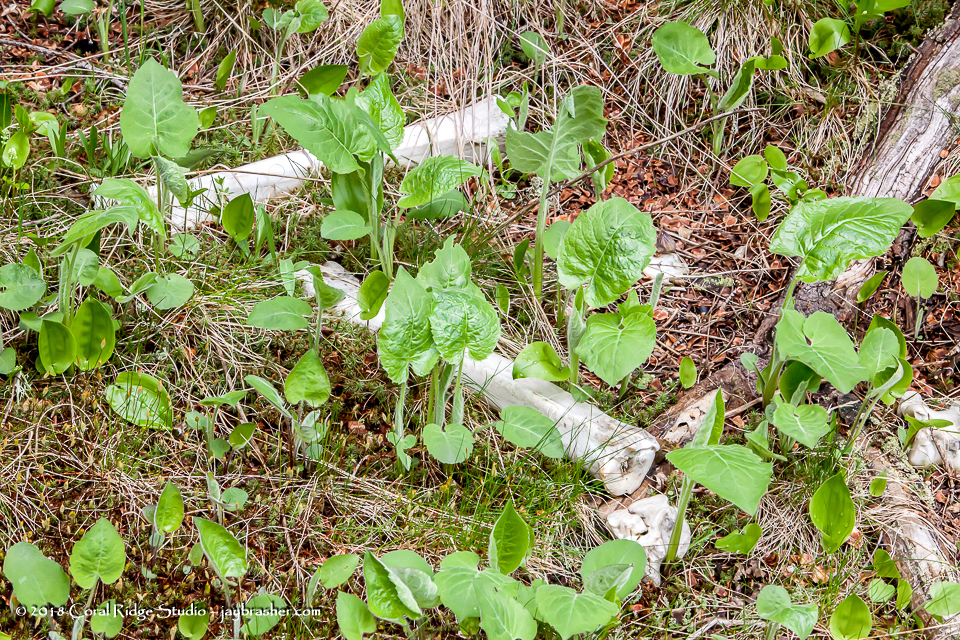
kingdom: Animalia
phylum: Chordata
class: Mammalia
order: Artiodactyla
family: Cervidae
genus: Alces
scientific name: Alces alces
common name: Moose
